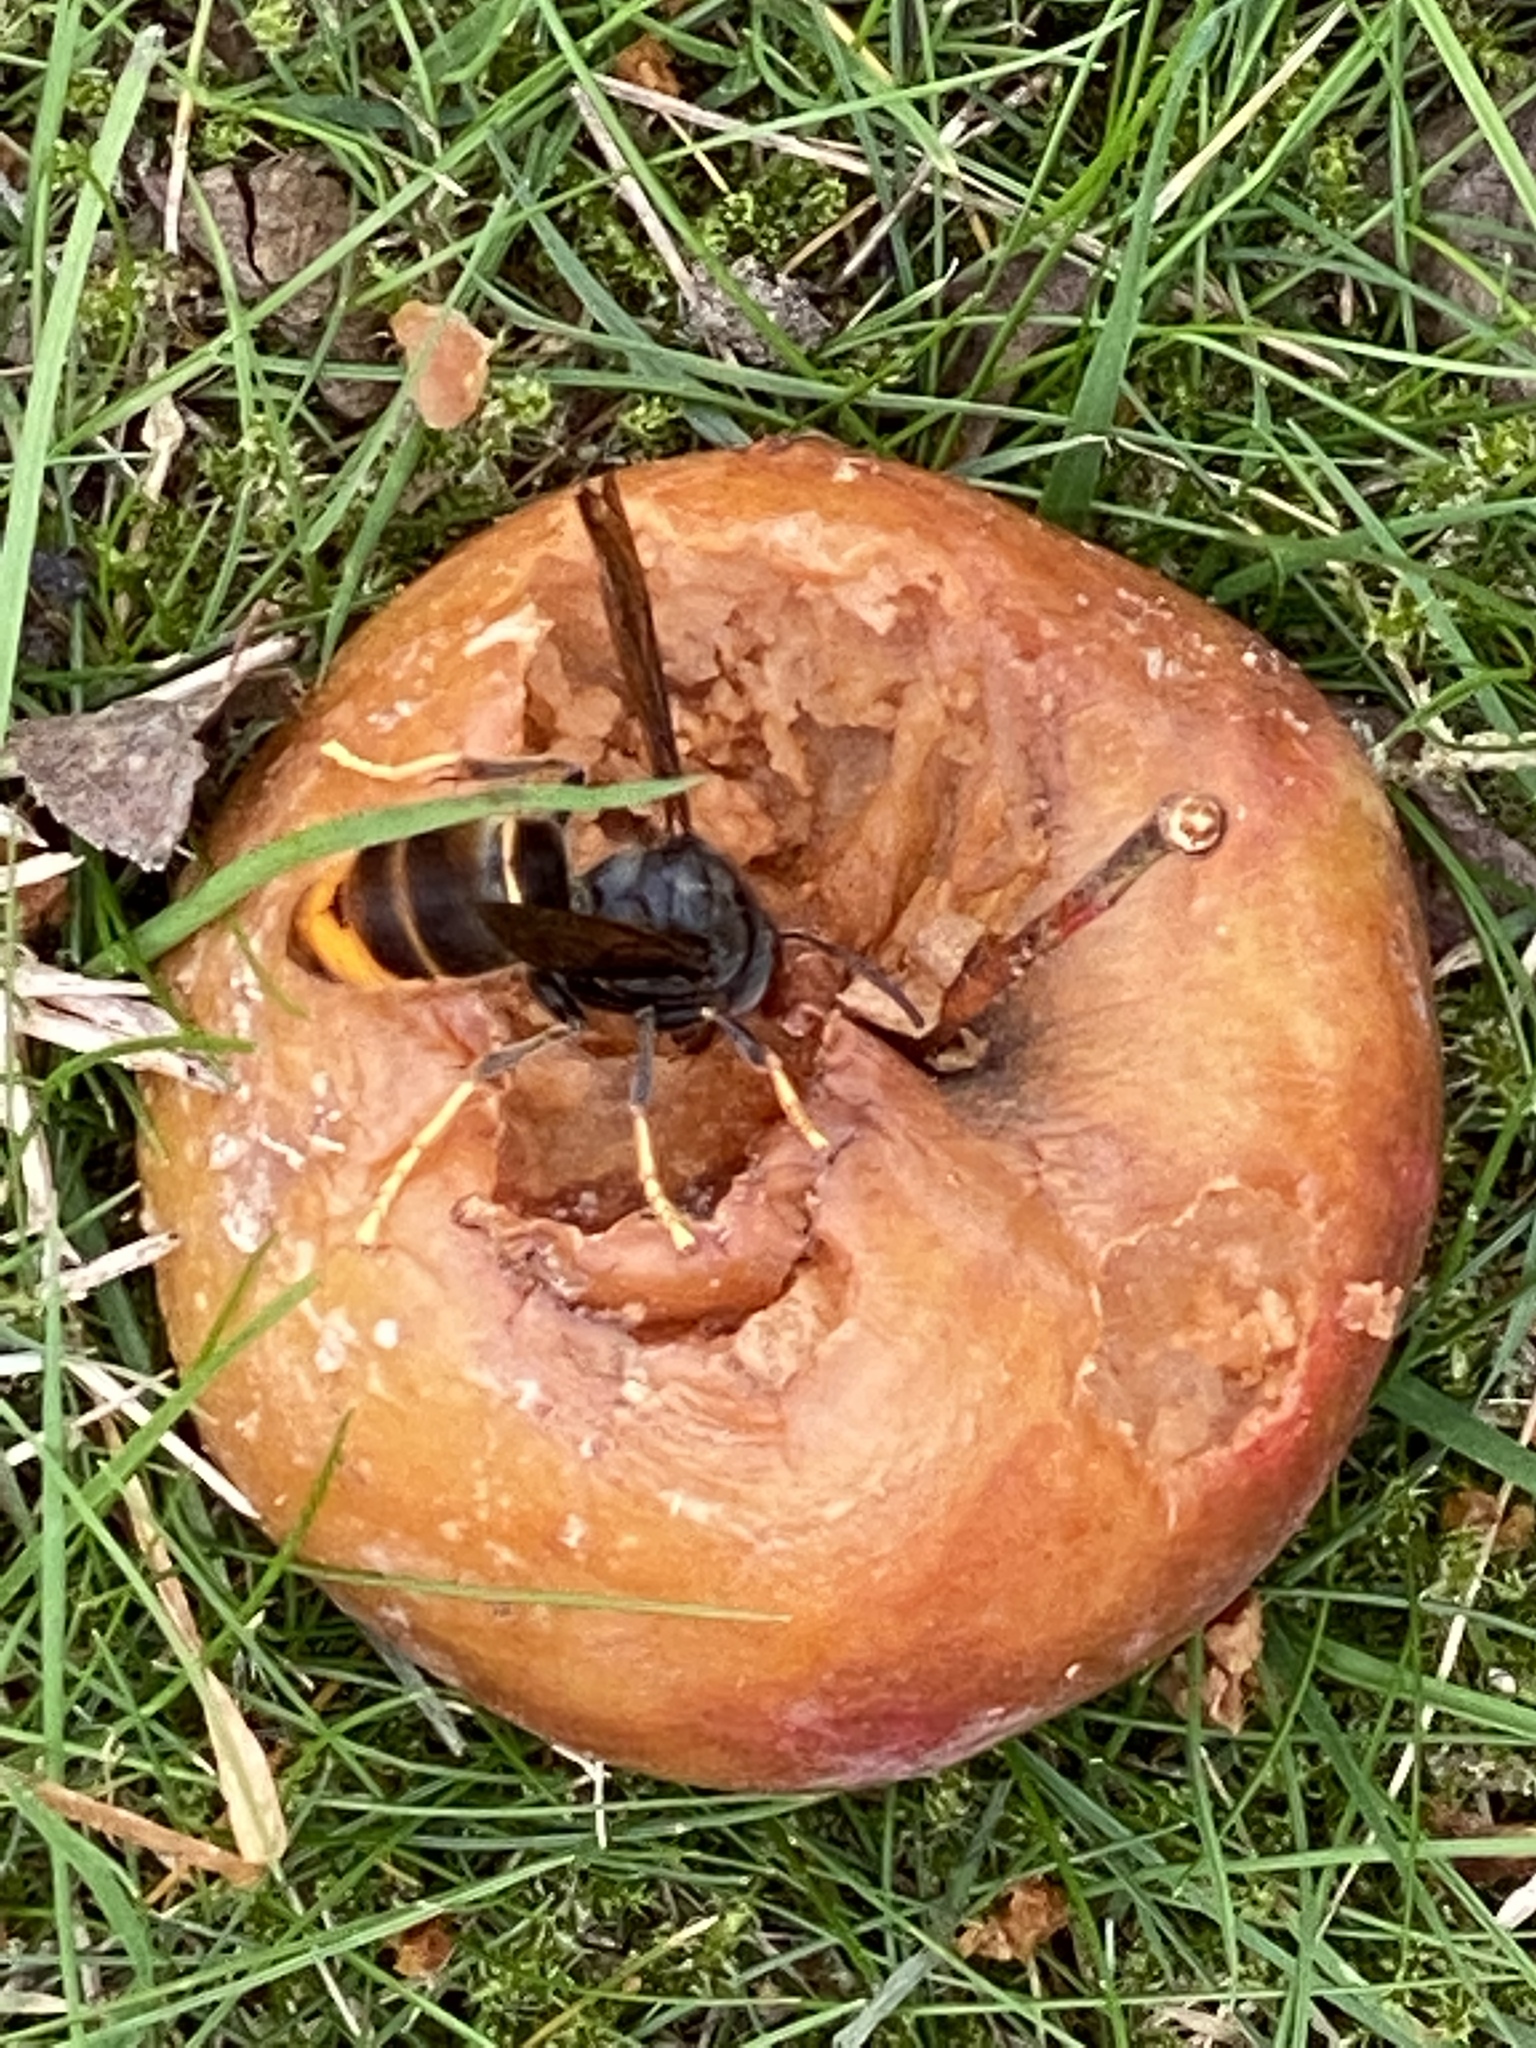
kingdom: Animalia
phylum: Arthropoda
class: Insecta
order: Hymenoptera
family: Vespidae
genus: Vespa
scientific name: Vespa velutina
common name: Asian hornet
